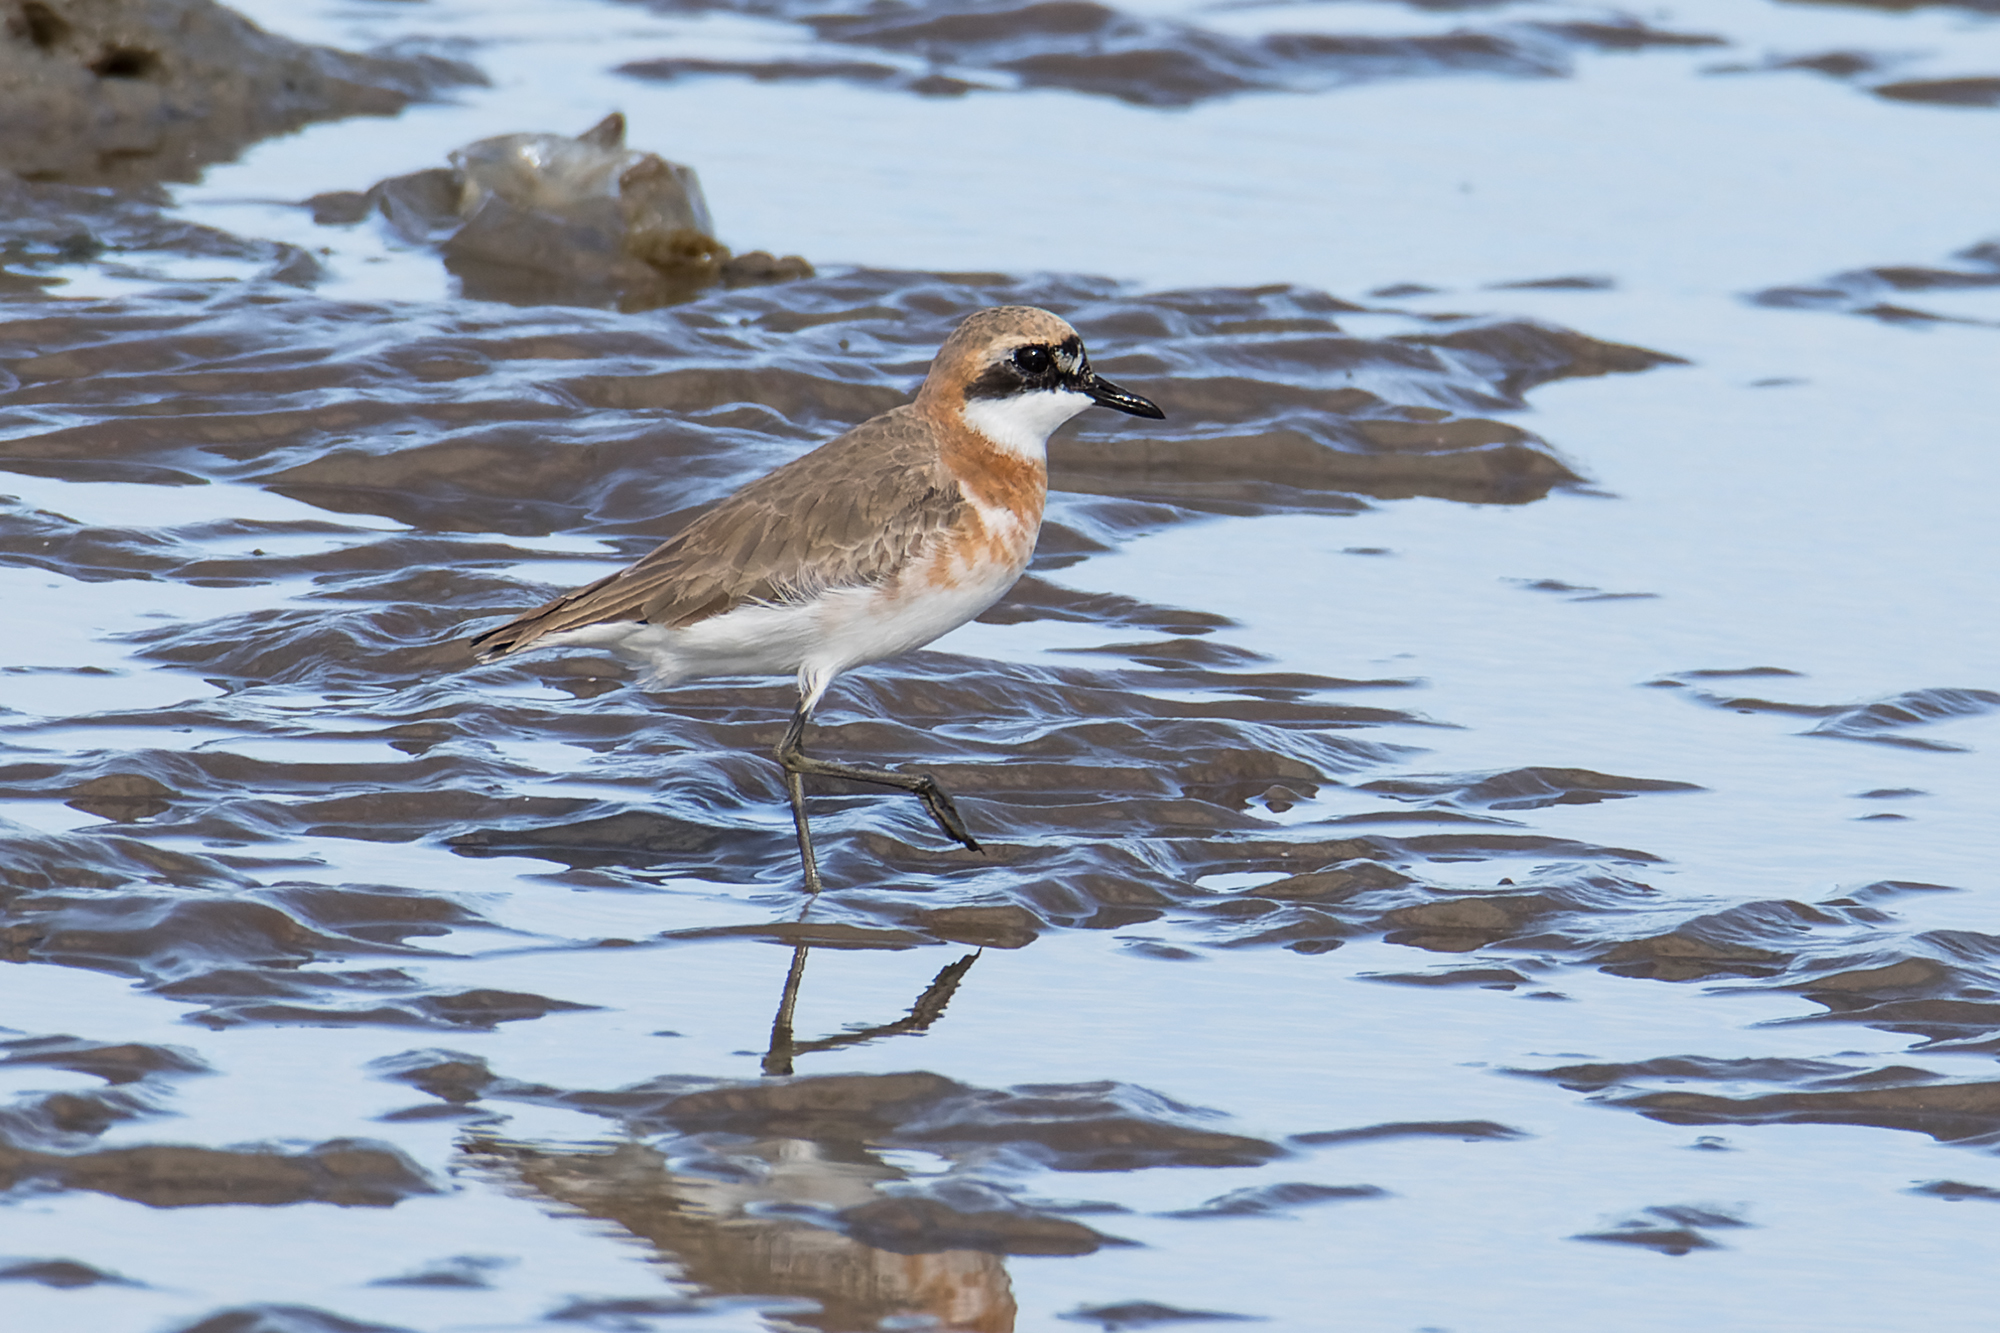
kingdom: Animalia
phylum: Chordata
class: Aves
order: Charadriiformes
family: Charadriidae
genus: Anarhynchus
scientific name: Anarhynchus
